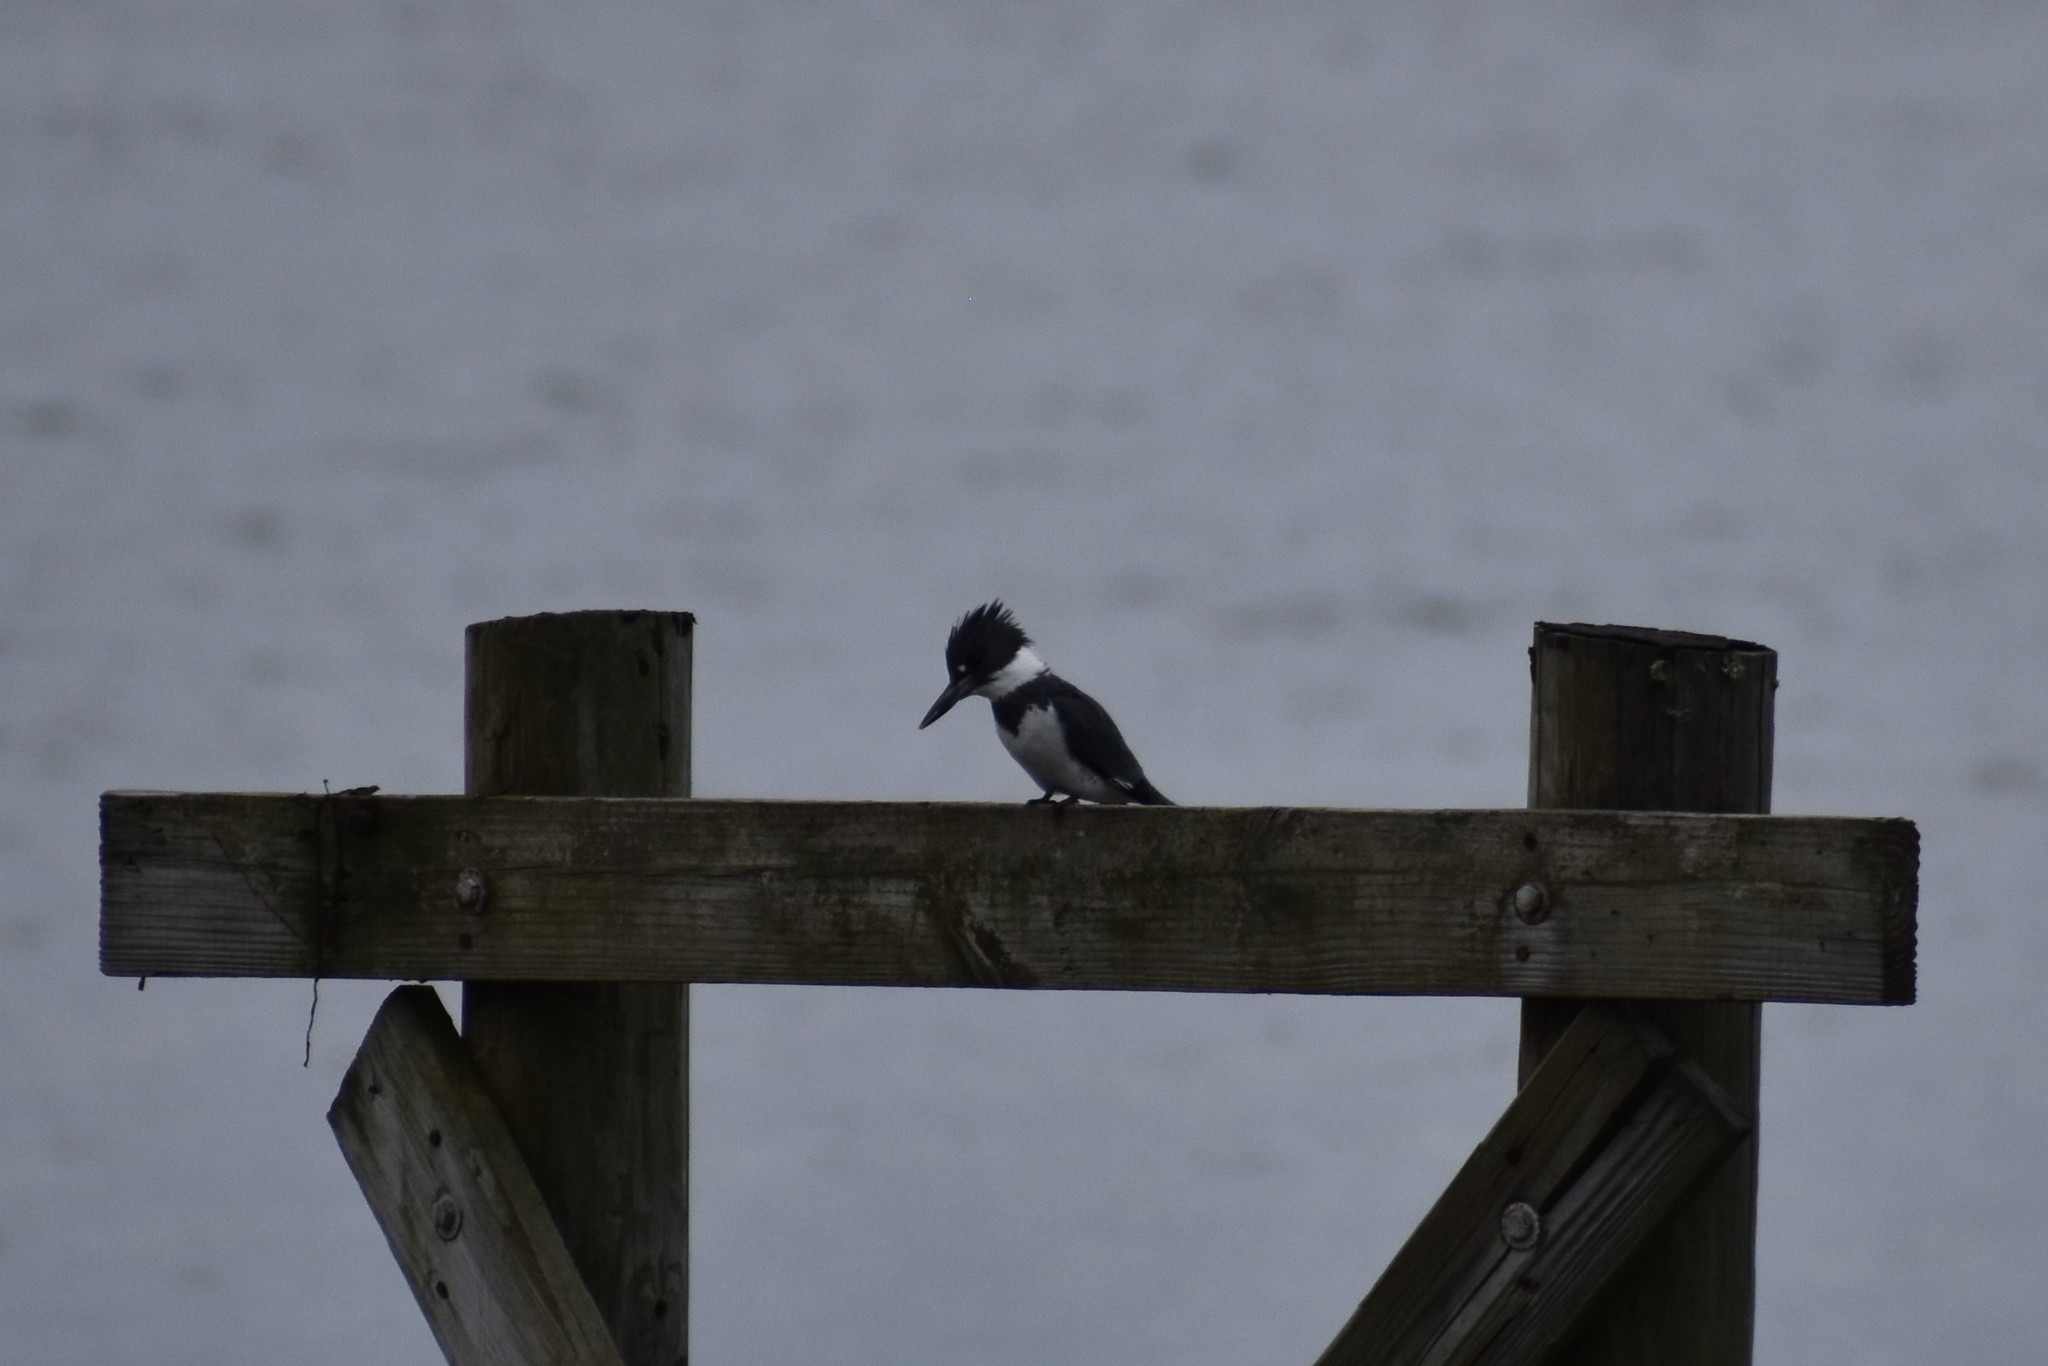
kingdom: Animalia
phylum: Chordata
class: Aves
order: Coraciiformes
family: Alcedinidae
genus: Megaceryle
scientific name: Megaceryle alcyon
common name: Belted kingfisher
